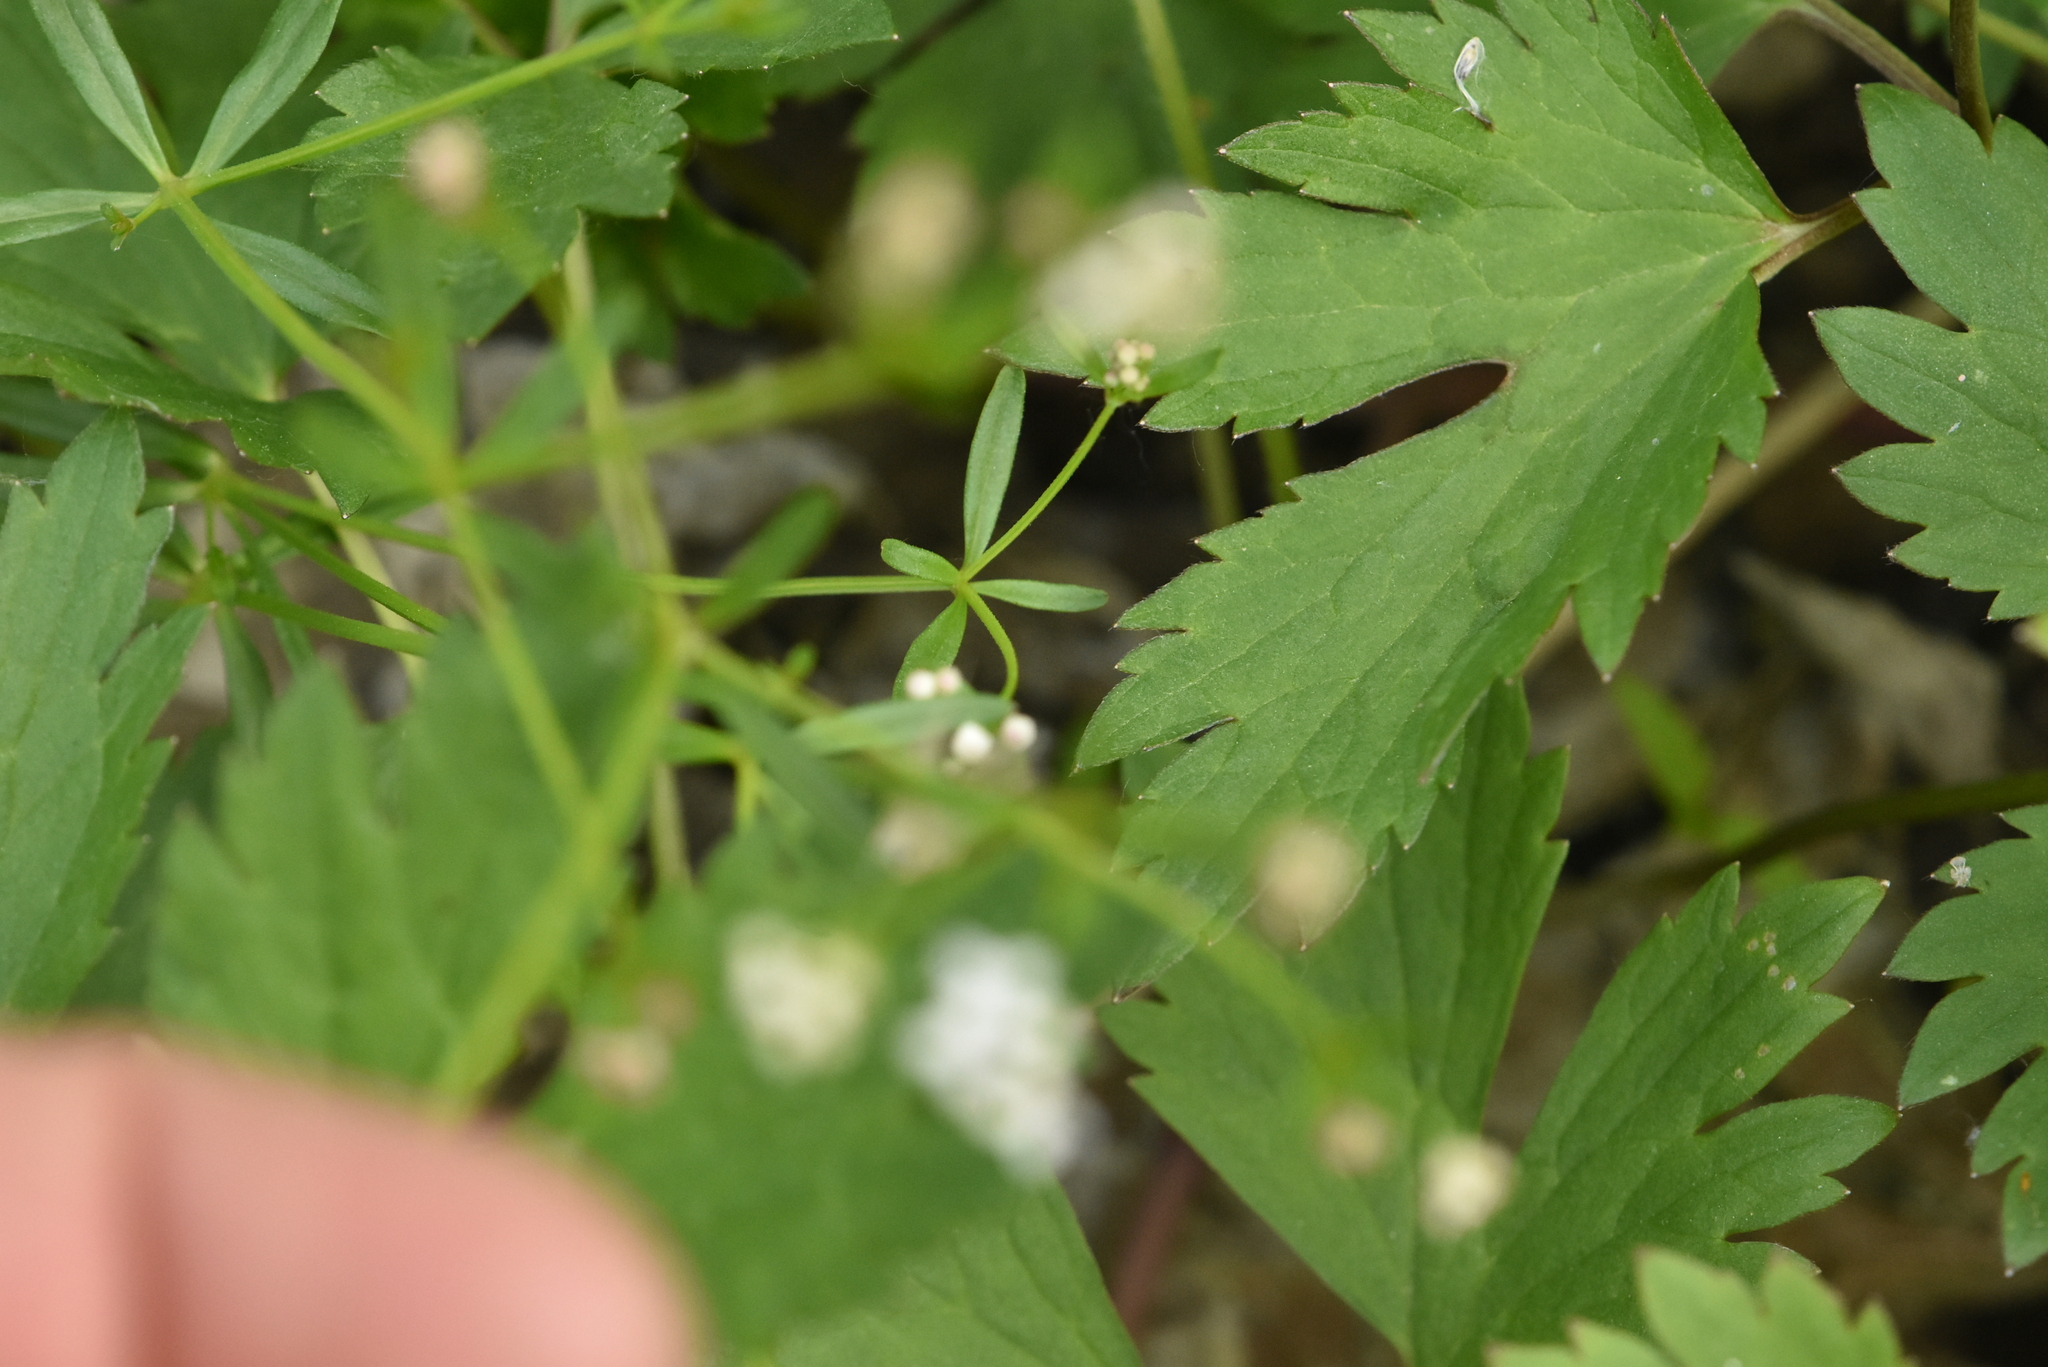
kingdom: Plantae
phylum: Tracheophyta
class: Magnoliopsida
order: Gentianales
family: Rubiaceae
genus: Galium
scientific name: Galium palustre
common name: Common marsh-bedstraw
